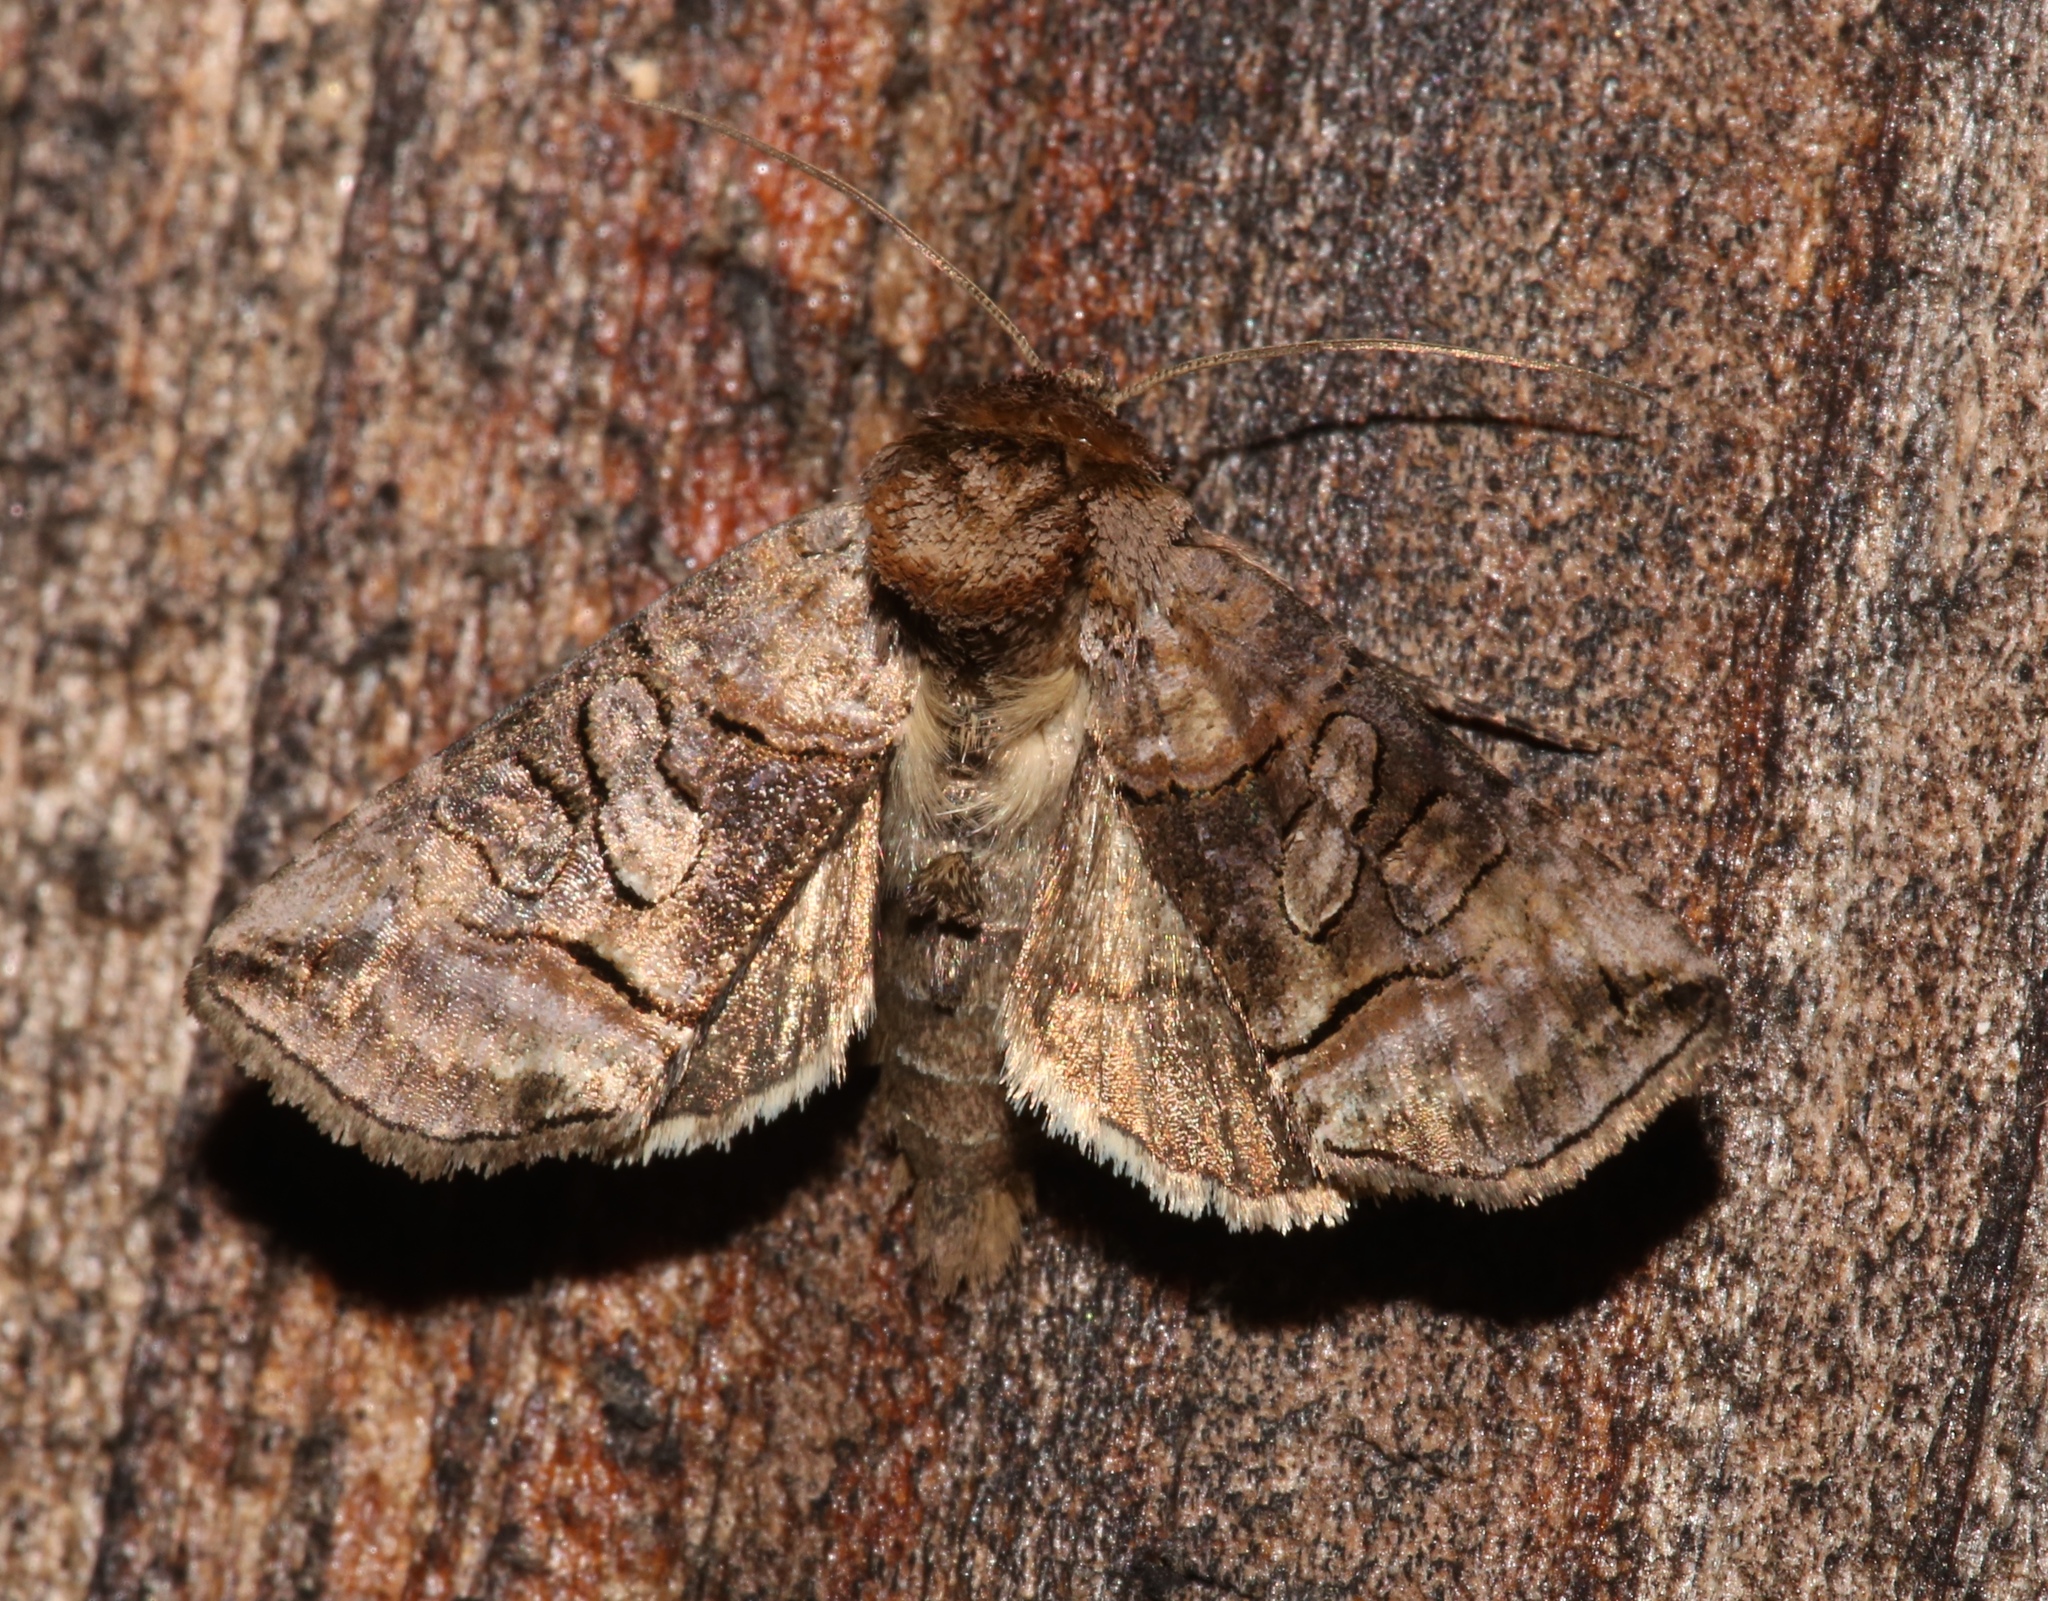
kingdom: Animalia
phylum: Arthropoda
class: Insecta
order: Lepidoptera
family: Noctuidae
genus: Abrostola
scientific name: Abrostola urentis
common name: Spectacled nettle moth
